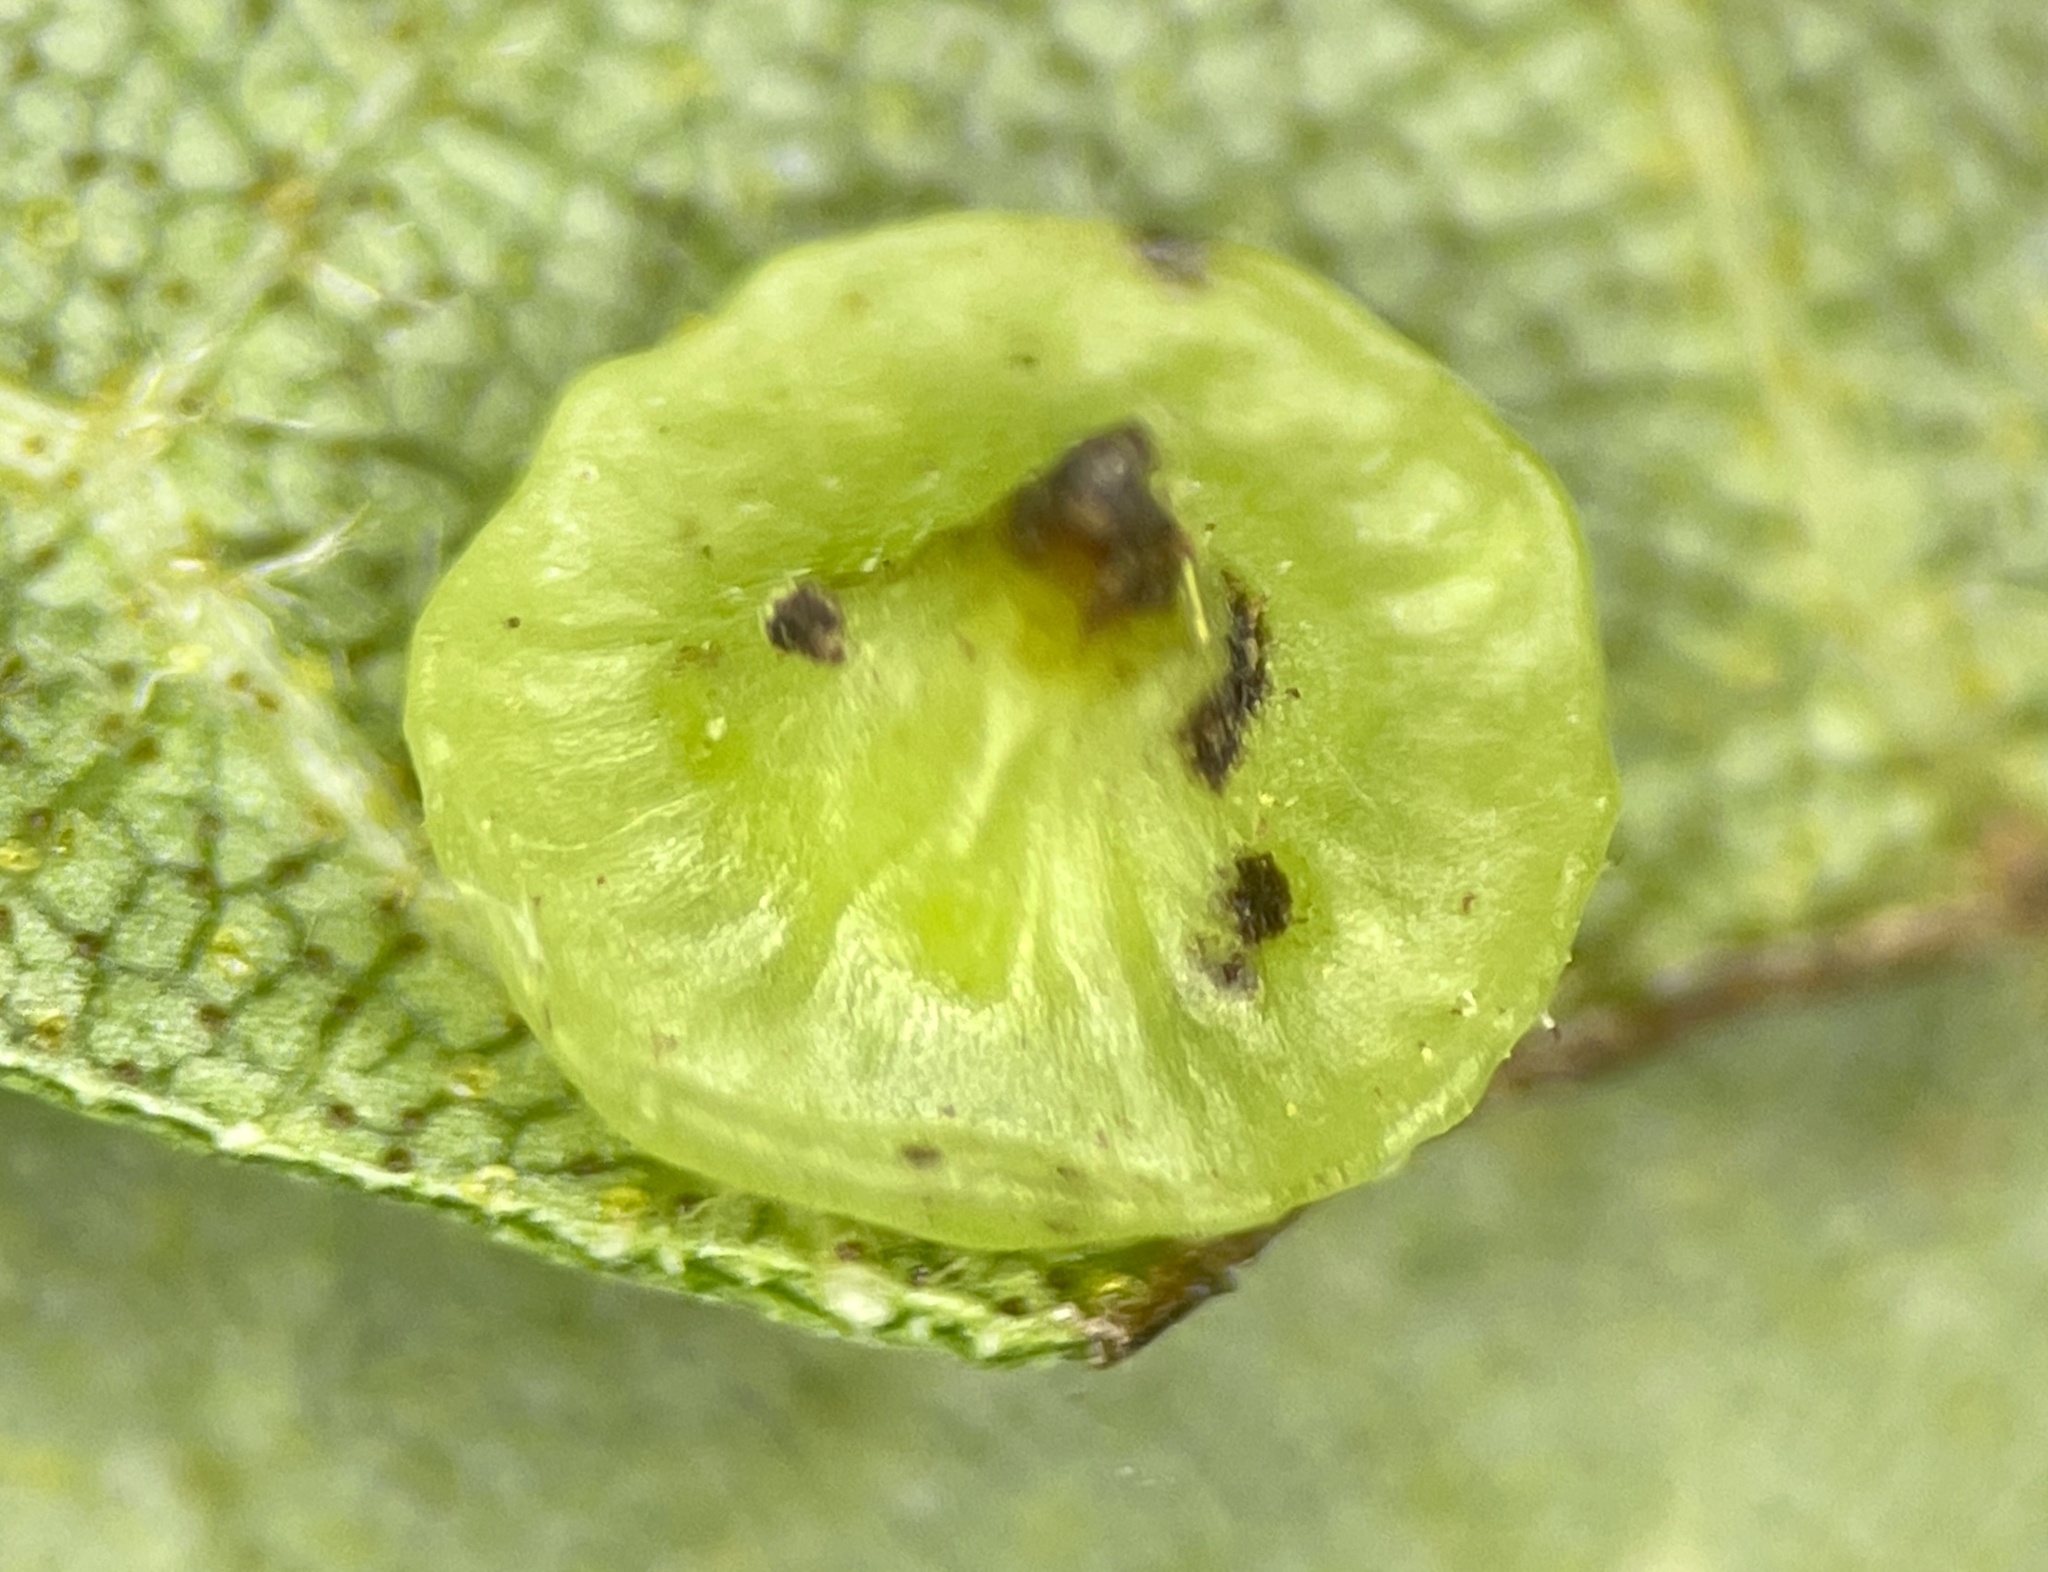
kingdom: Animalia
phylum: Arthropoda
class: Insecta
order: Diptera
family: Cecidomyiidae
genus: Caryomyia
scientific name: Caryomyia sanguinolenta
